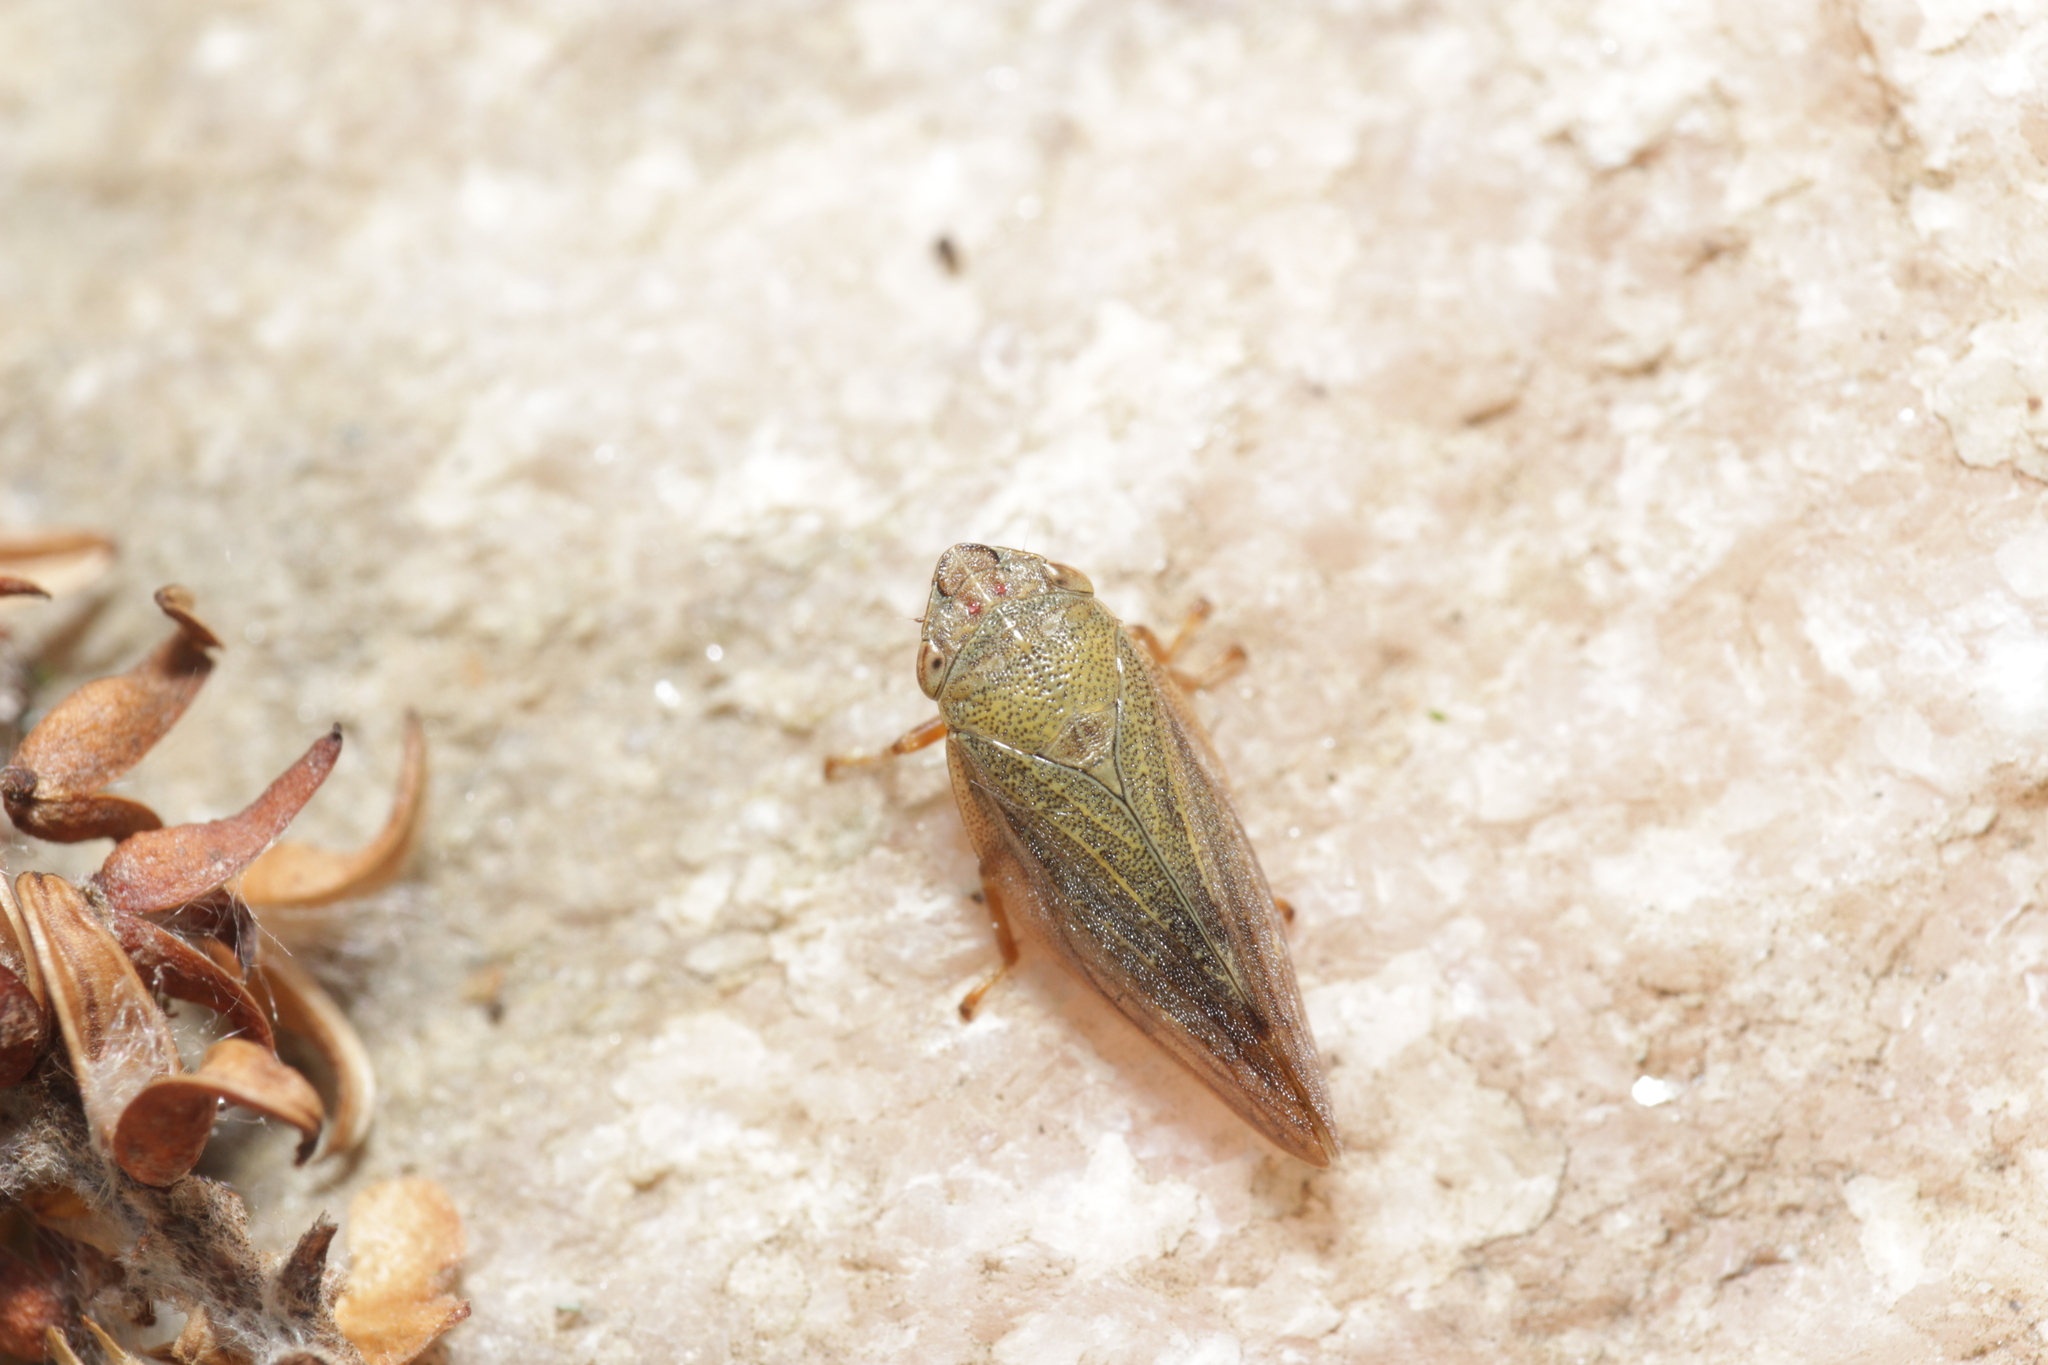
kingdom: Animalia
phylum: Arthropoda
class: Insecta
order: Hemiptera
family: Aphrophoridae
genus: Aphrophora
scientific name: Aphrophora salicina
